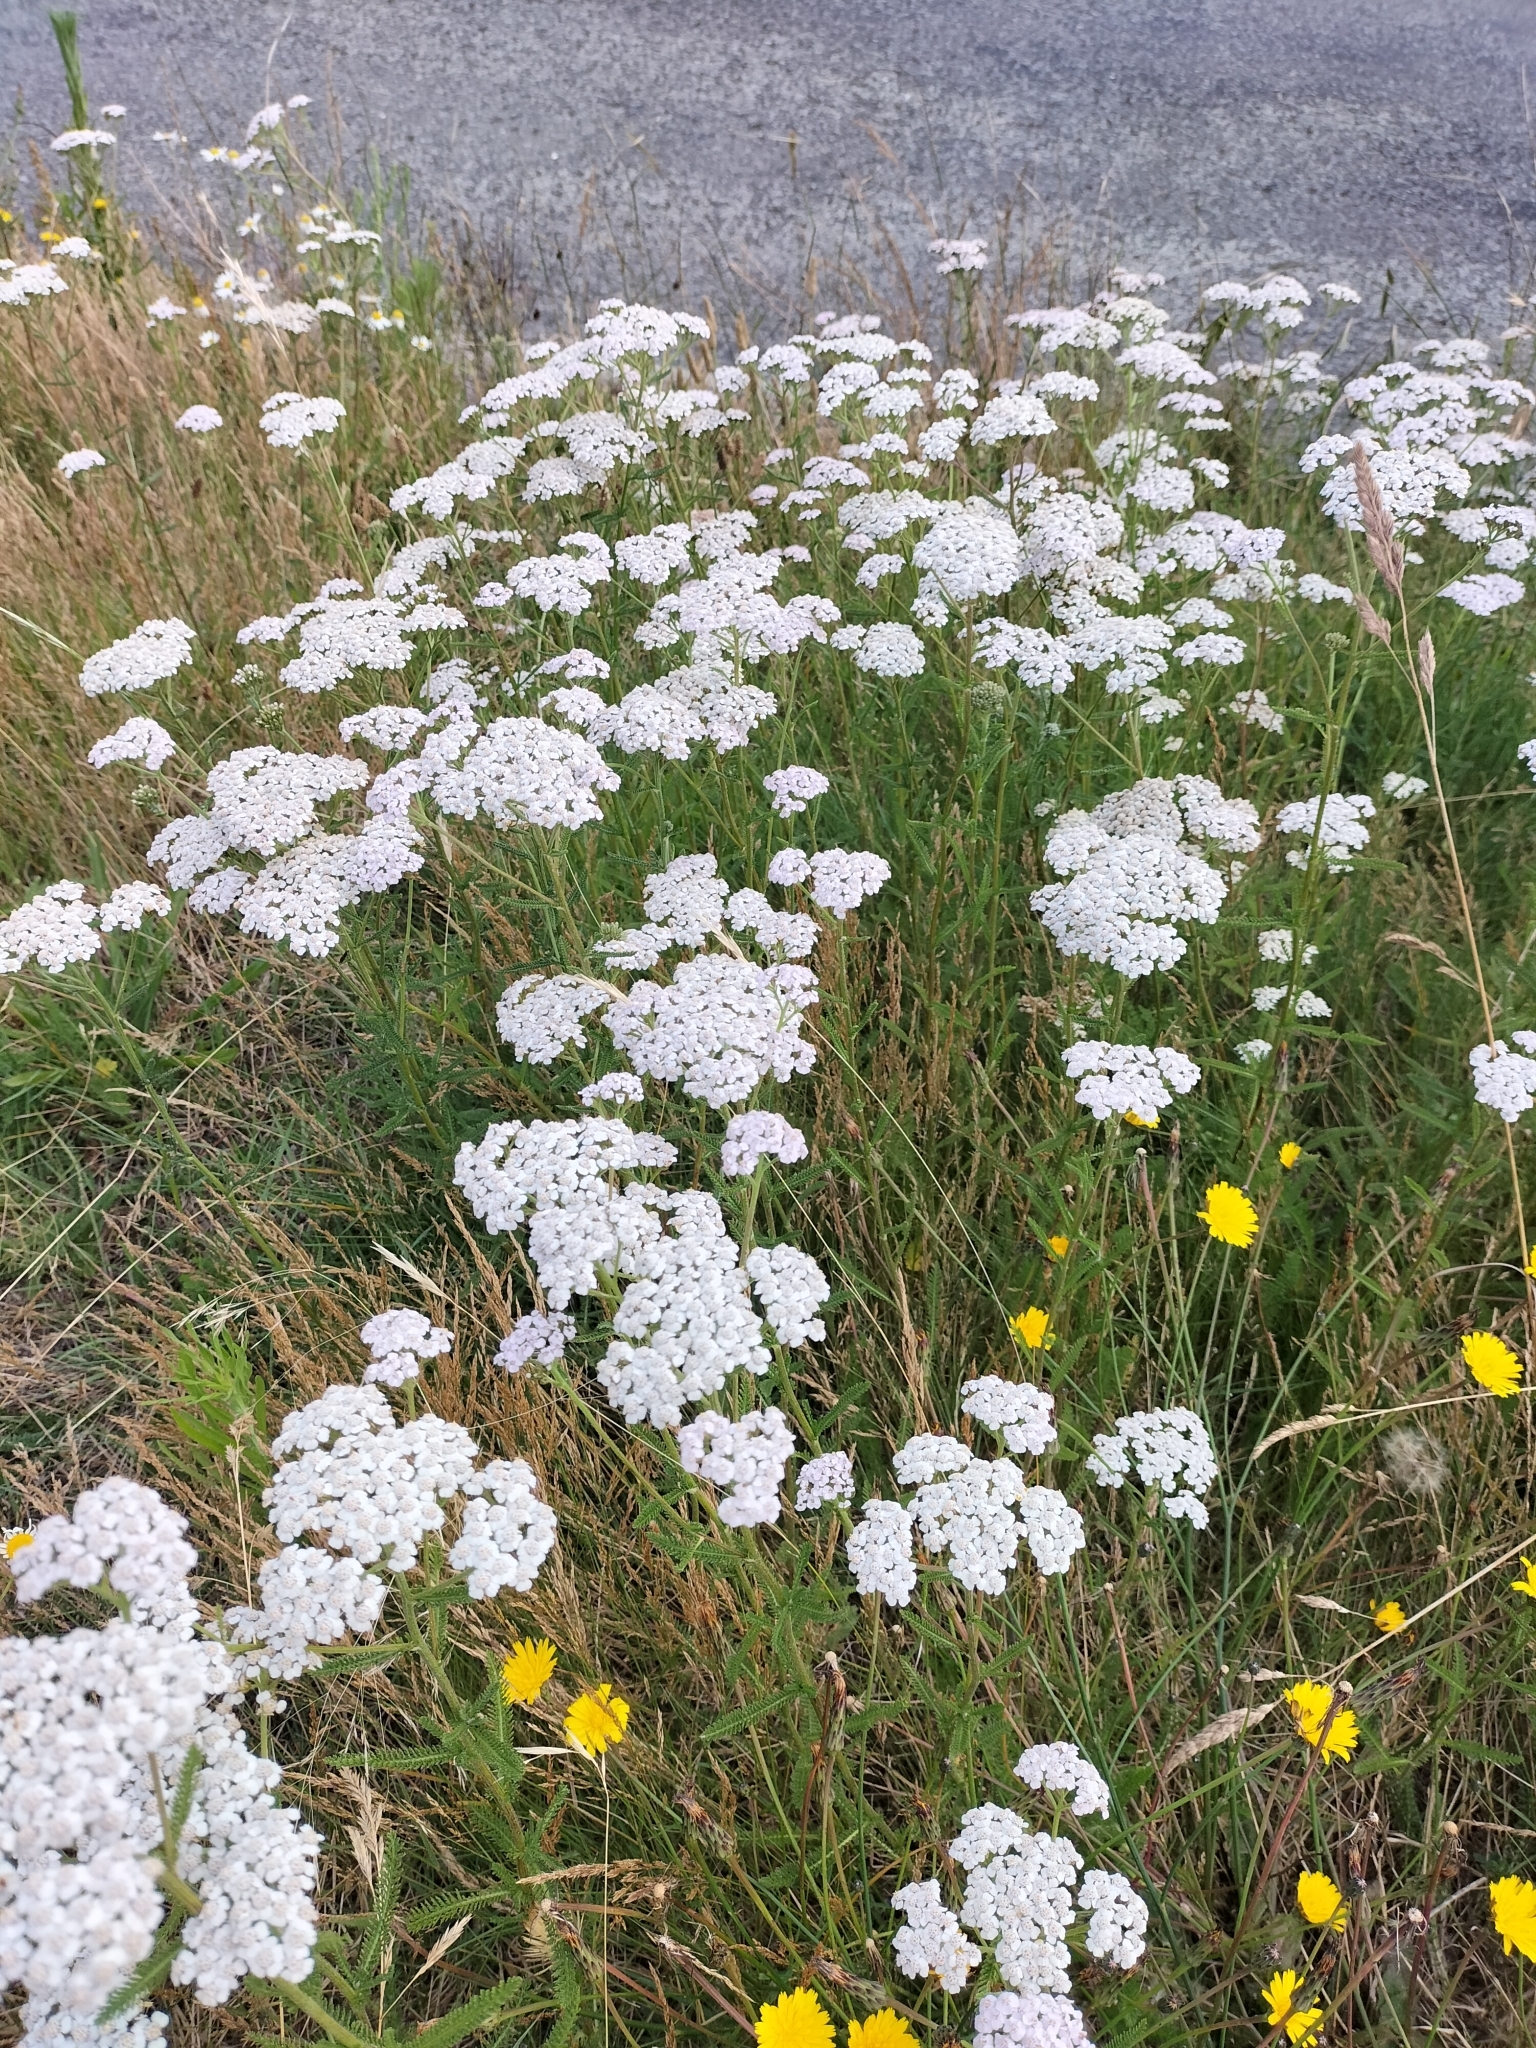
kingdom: Plantae
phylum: Tracheophyta
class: Magnoliopsida
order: Asterales
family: Asteraceae
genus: Achillea
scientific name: Achillea millefolium
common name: Yarrow
